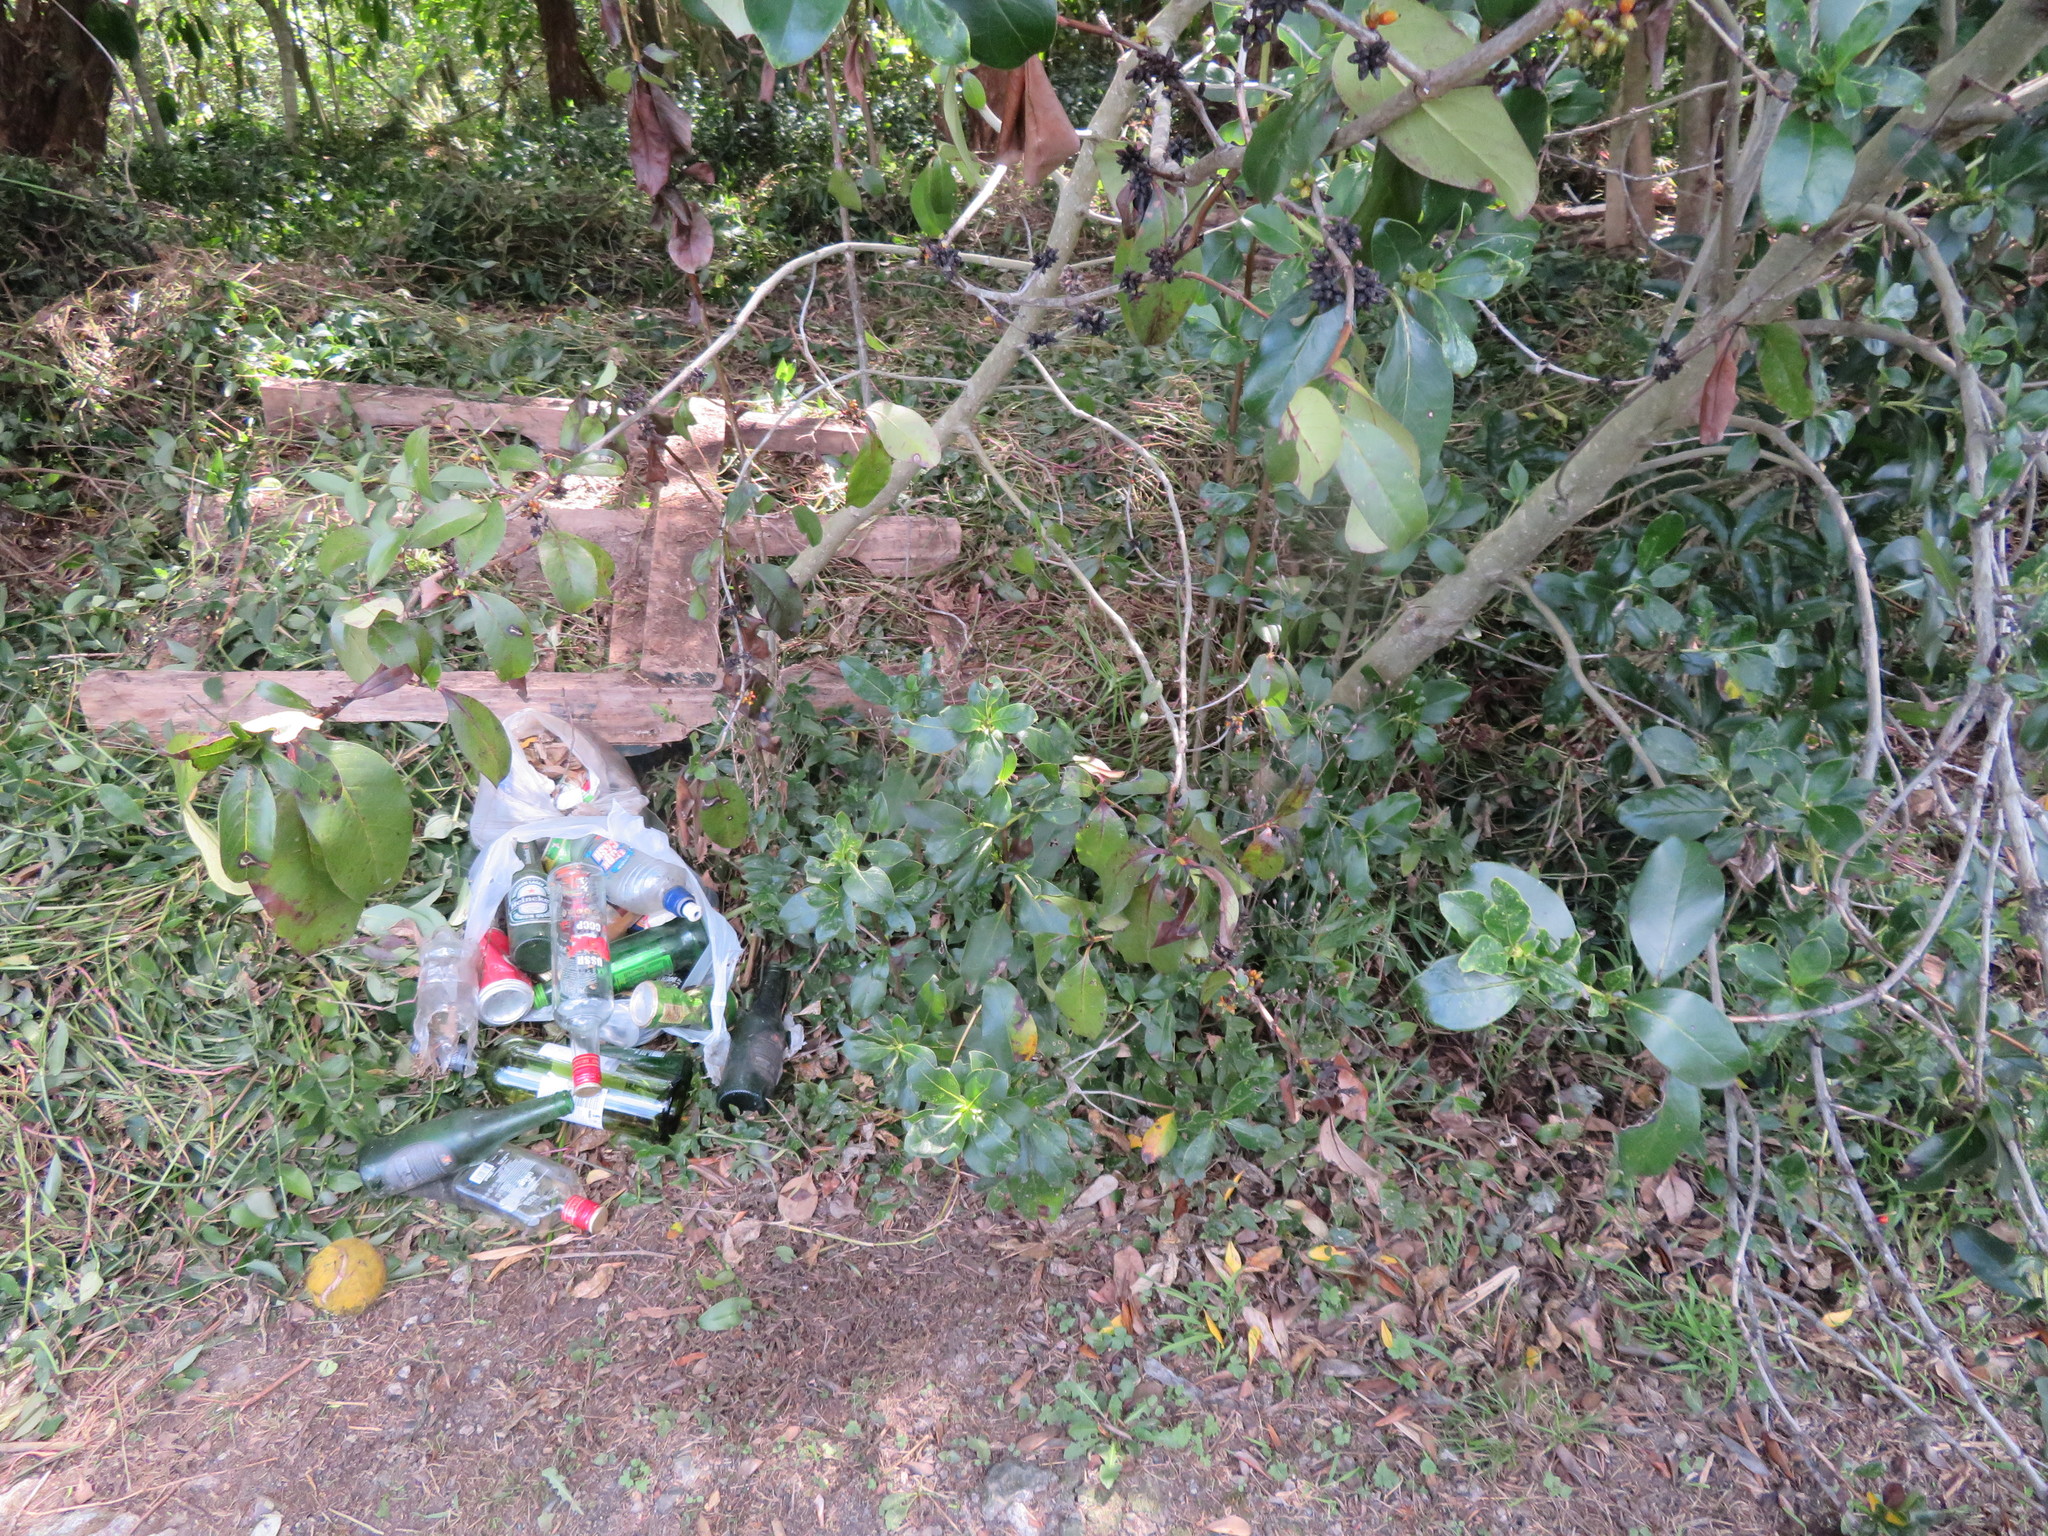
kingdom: Plantae
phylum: Tracheophyta
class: Magnoliopsida
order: Gentianales
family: Rubiaceae
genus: Coprosma
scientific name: Coprosma robusta
